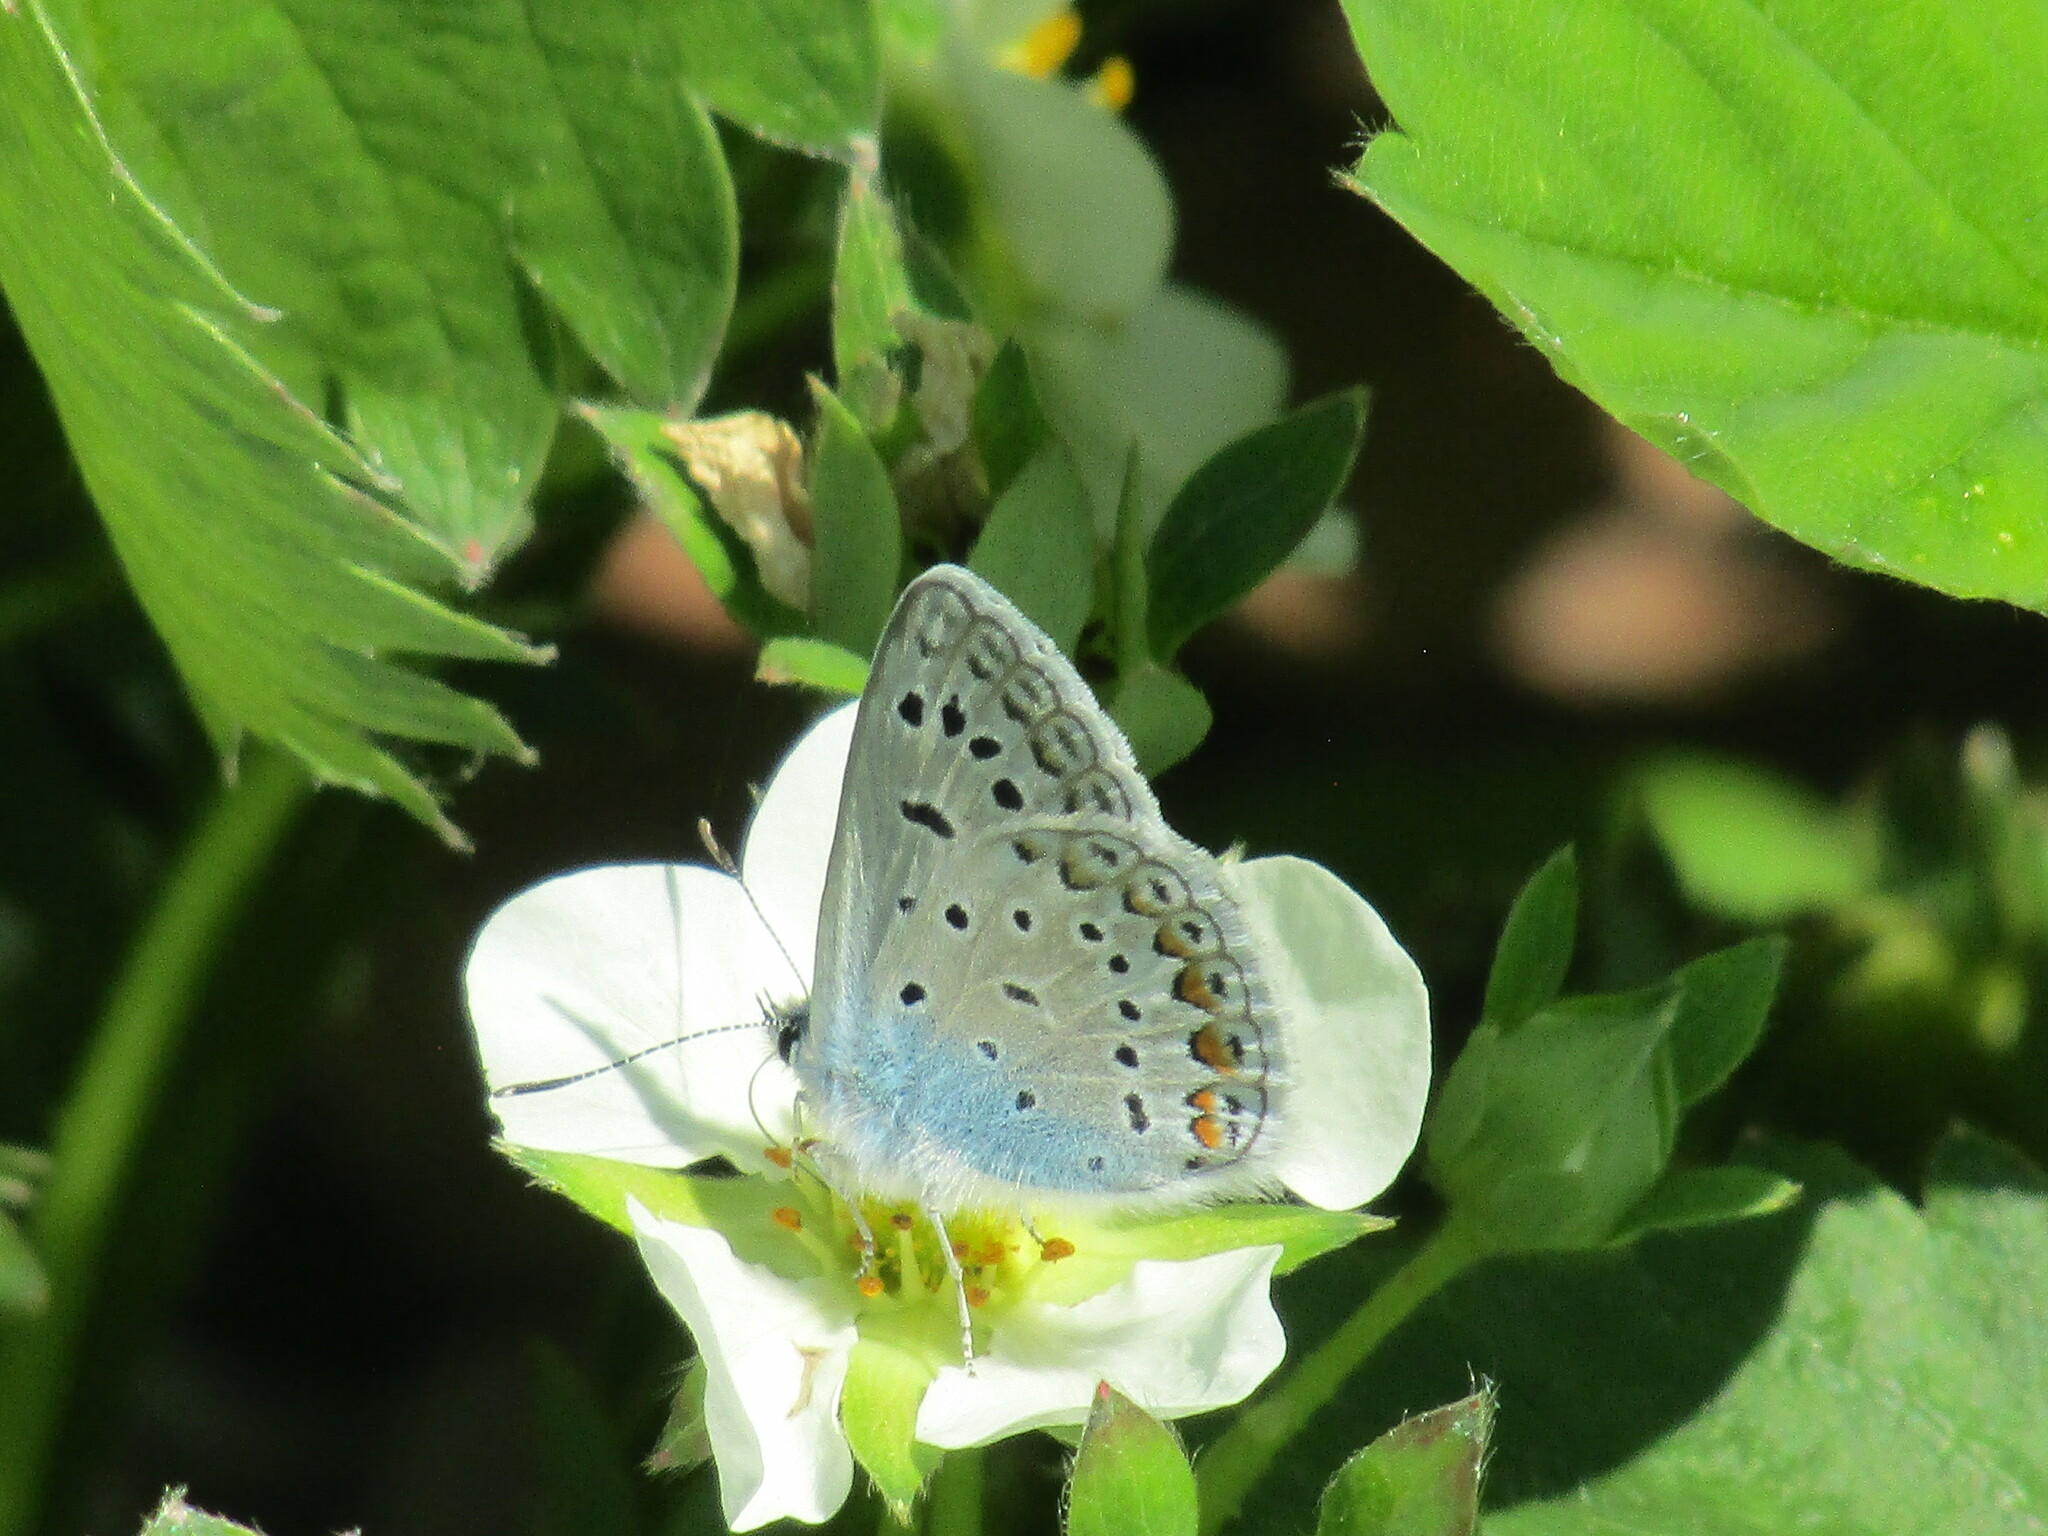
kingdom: Animalia
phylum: Arthropoda
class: Insecta
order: Lepidoptera
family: Lycaenidae
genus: Polyommatus
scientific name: Polyommatus icarus
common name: Common blue
